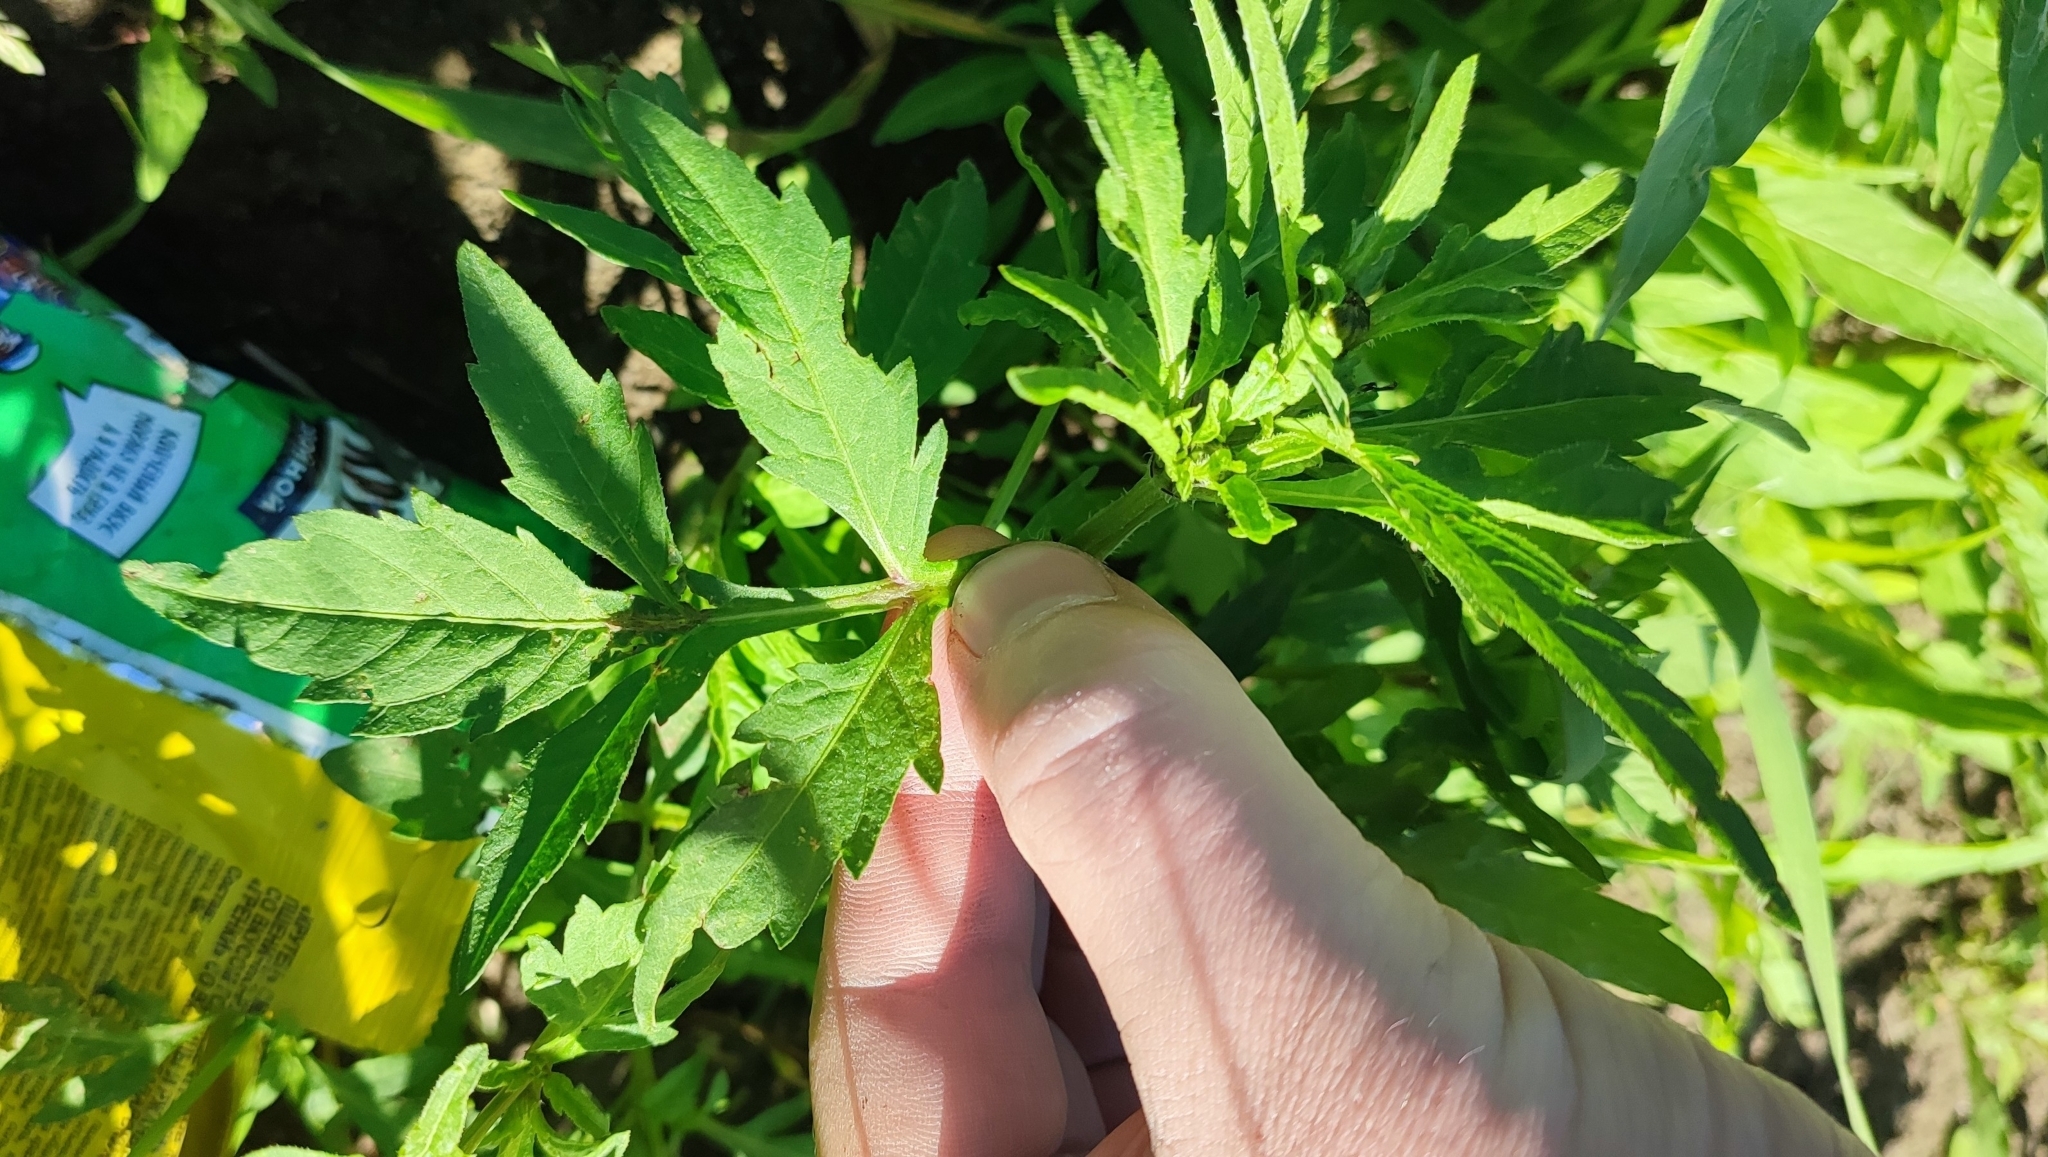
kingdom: Plantae
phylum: Tracheophyta
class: Magnoliopsida
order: Asterales
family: Asteraceae
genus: Bidens
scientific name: Bidens tripartita
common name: Trifid bur-marigold
